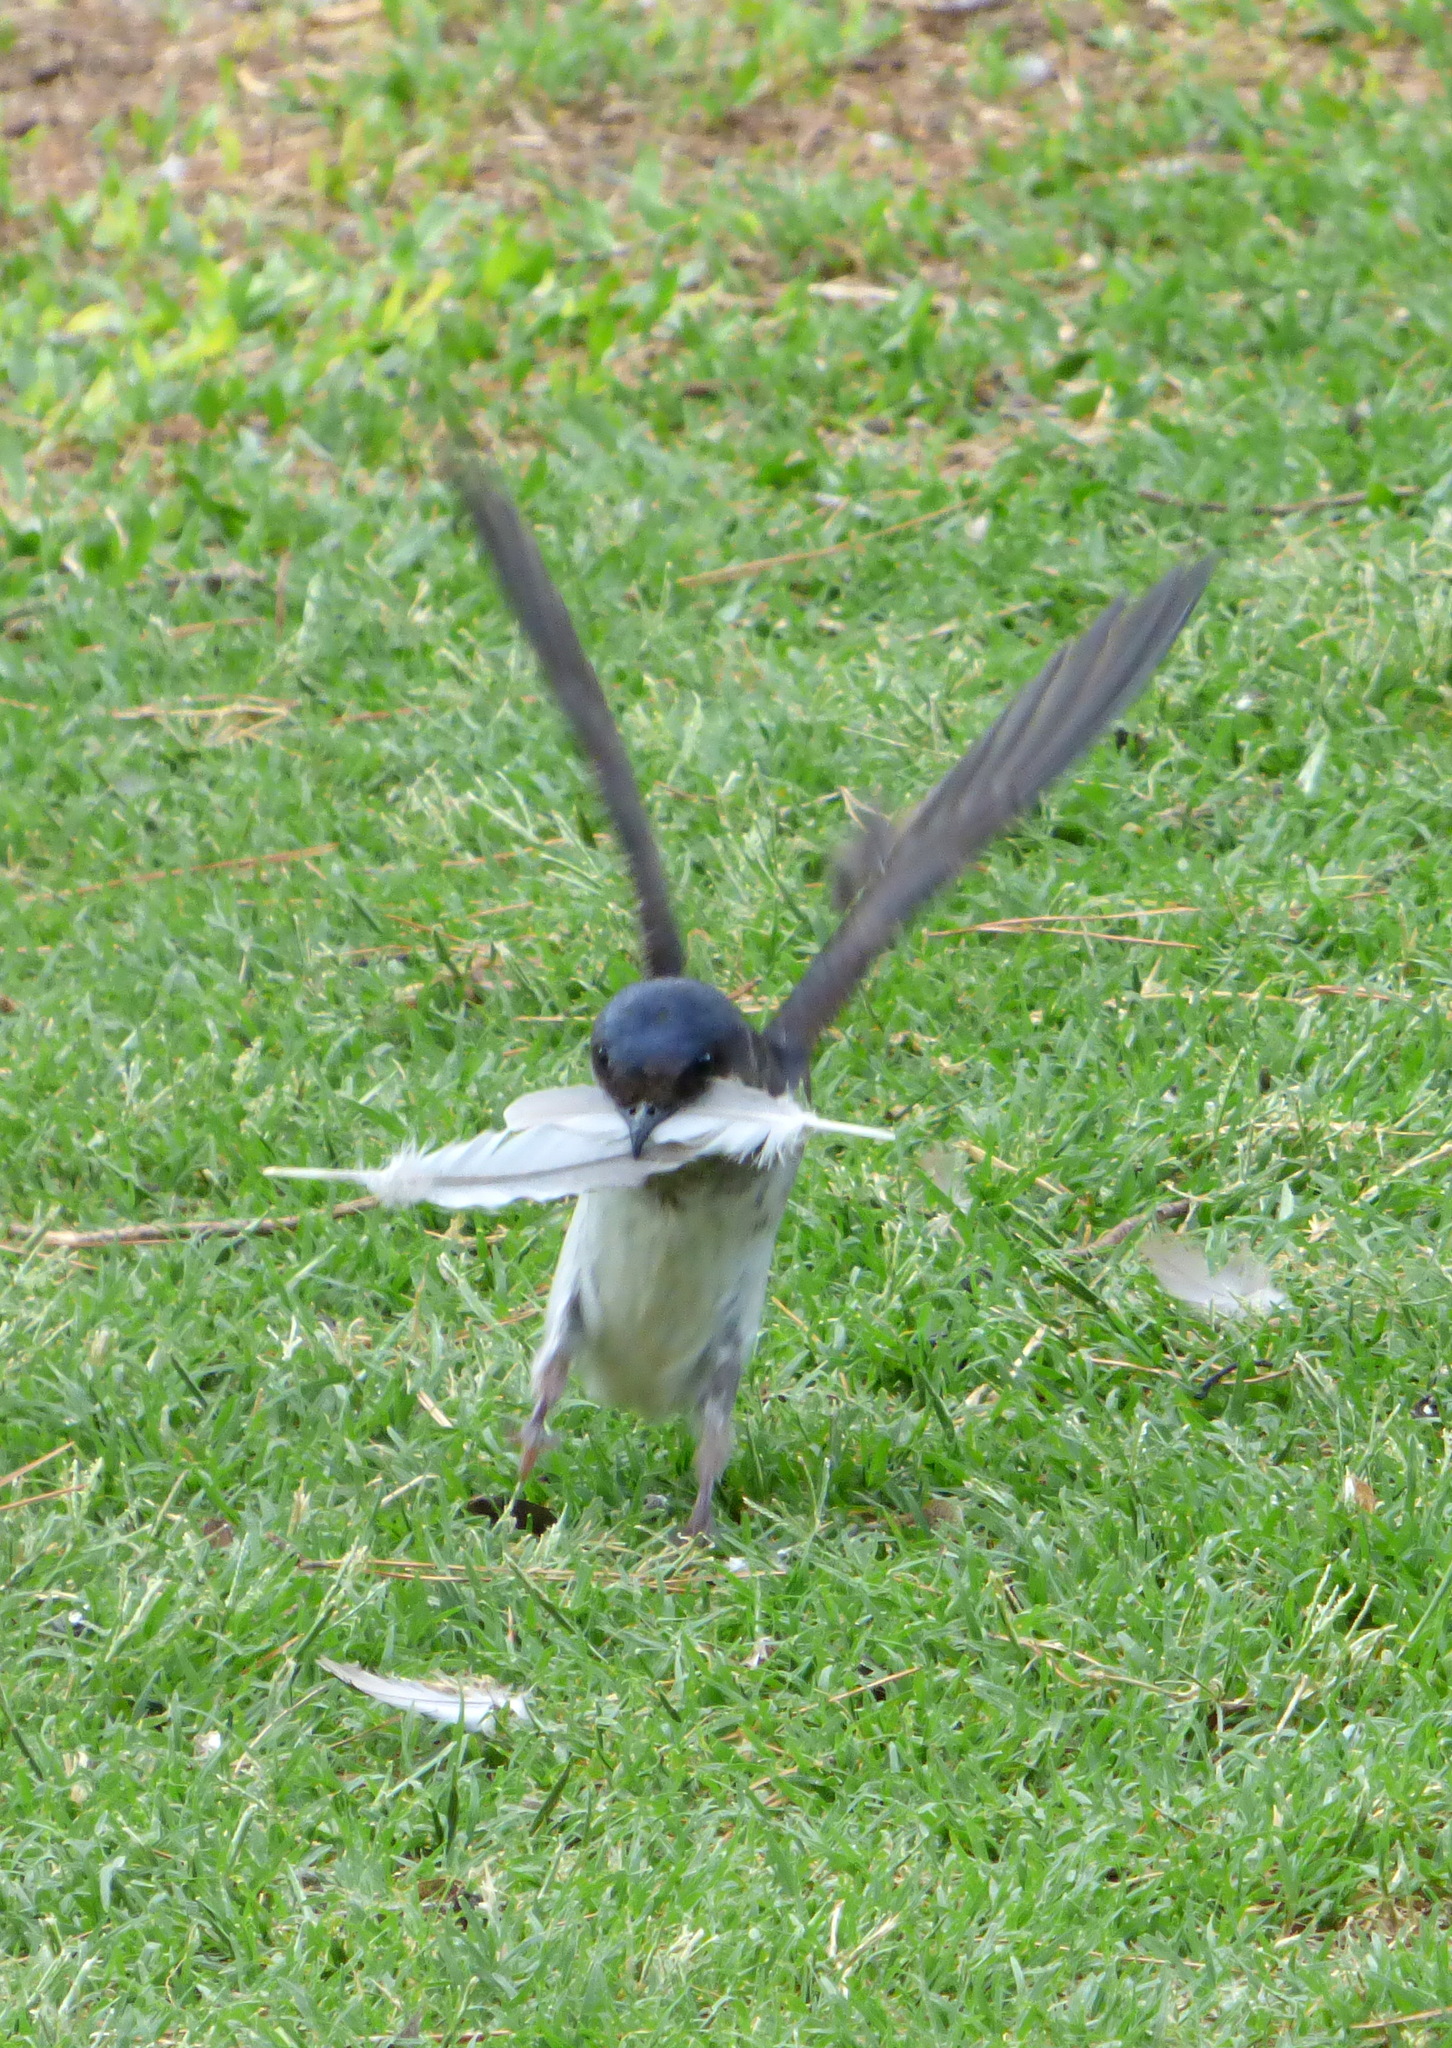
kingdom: Animalia
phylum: Chordata
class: Aves
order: Passeriformes
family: Hirundinidae
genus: Progne
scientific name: Progne chalybea
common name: Grey-breasted martin
